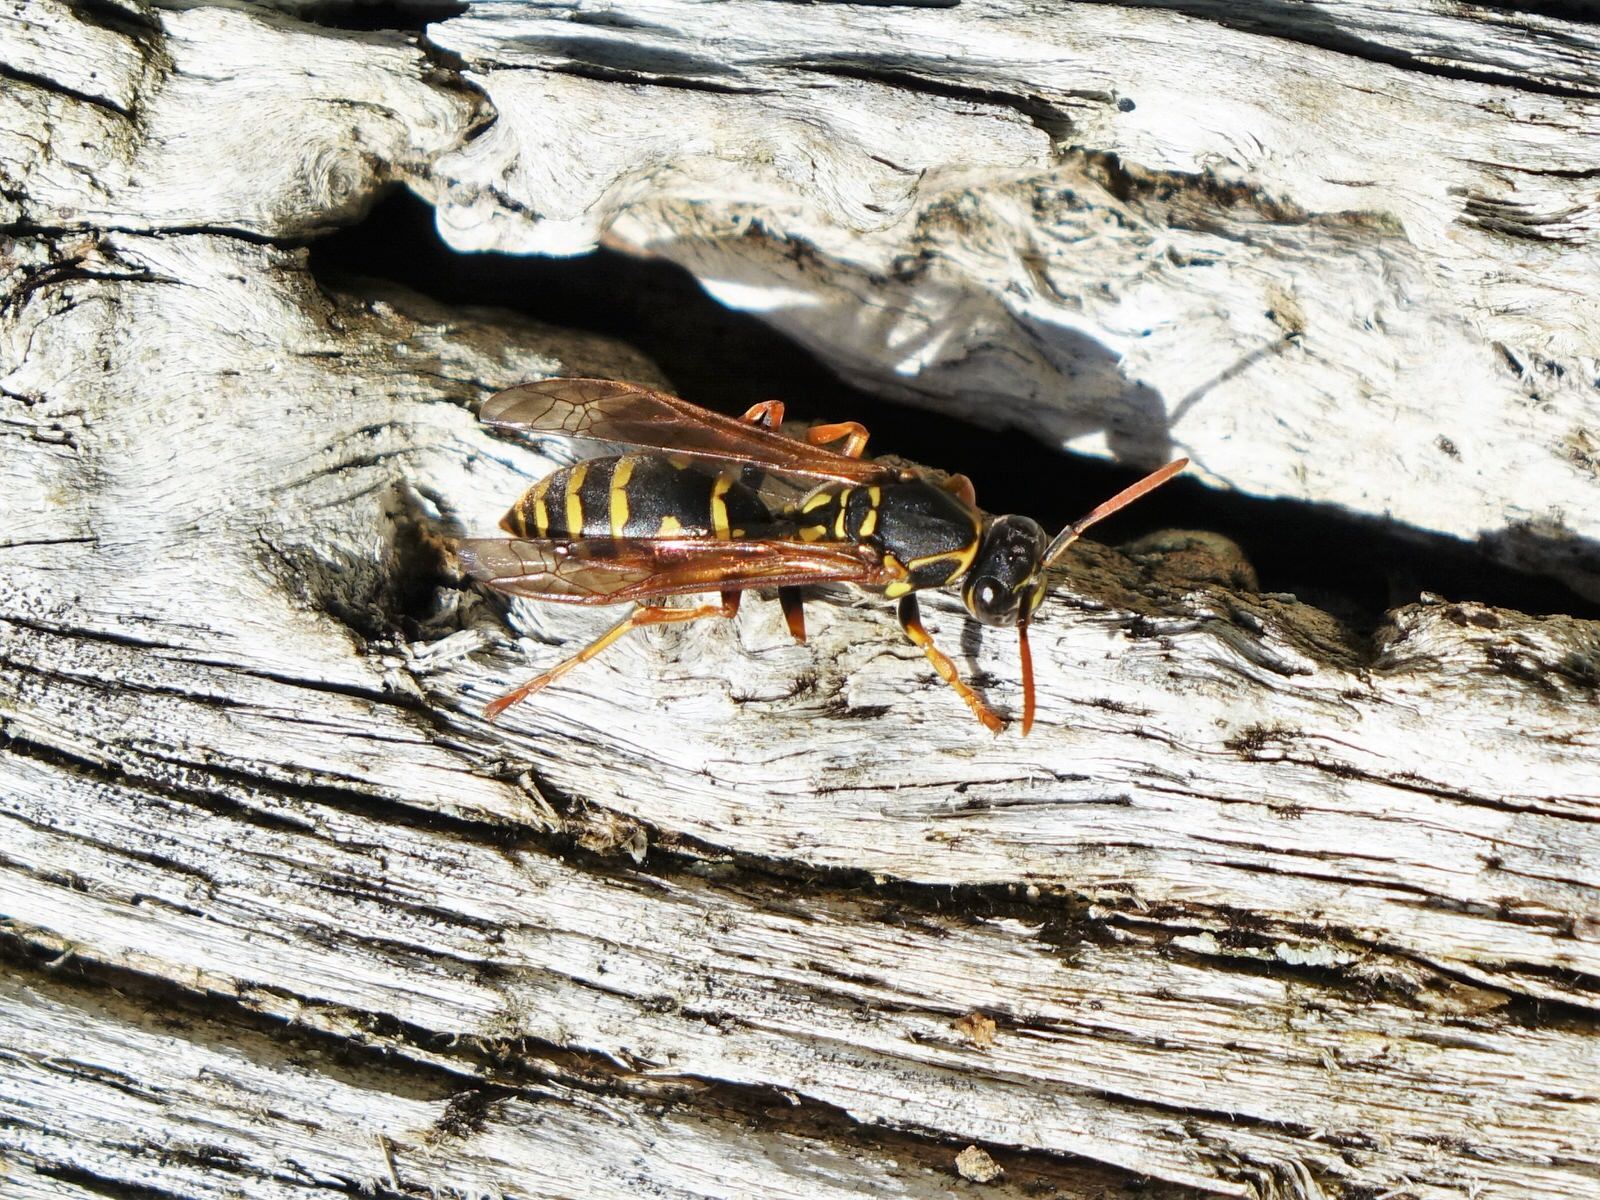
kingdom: Animalia
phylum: Arthropoda
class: Insecta
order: Hymenoptera
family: Eumenidae
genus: Polistes
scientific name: Polistes chinensis
